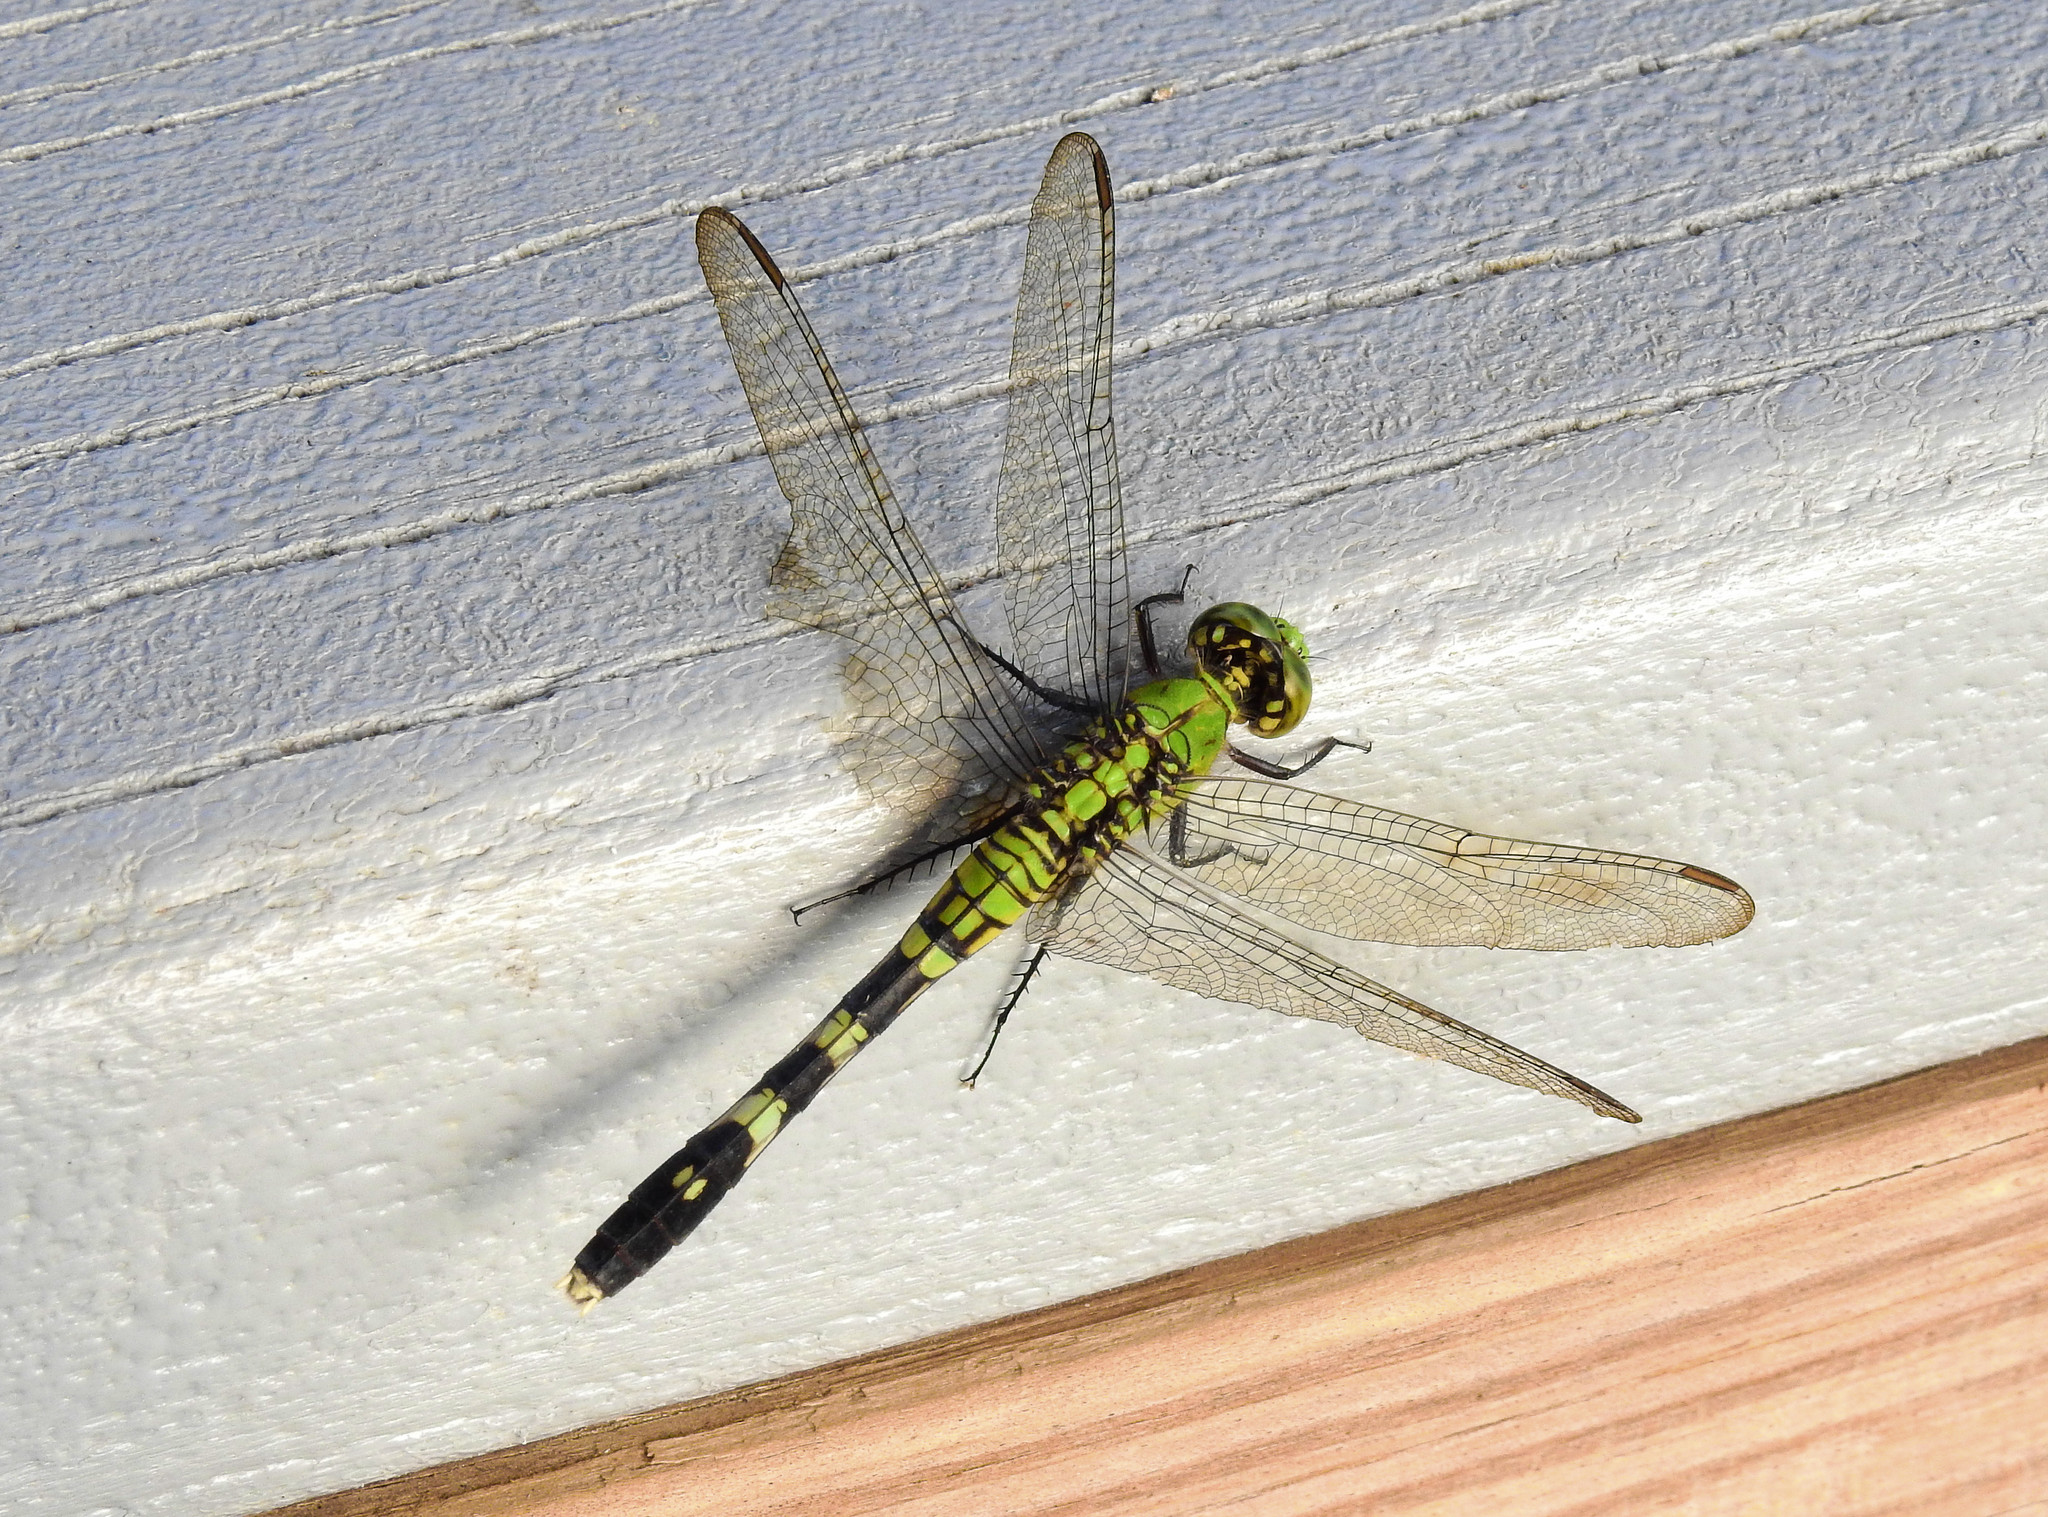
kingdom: Animalia
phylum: Arthropoda
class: Insecta
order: Odonata
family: Libellulidae
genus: Erythemis
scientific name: Erythemis simplicicollis
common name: Eastern pondhawk
